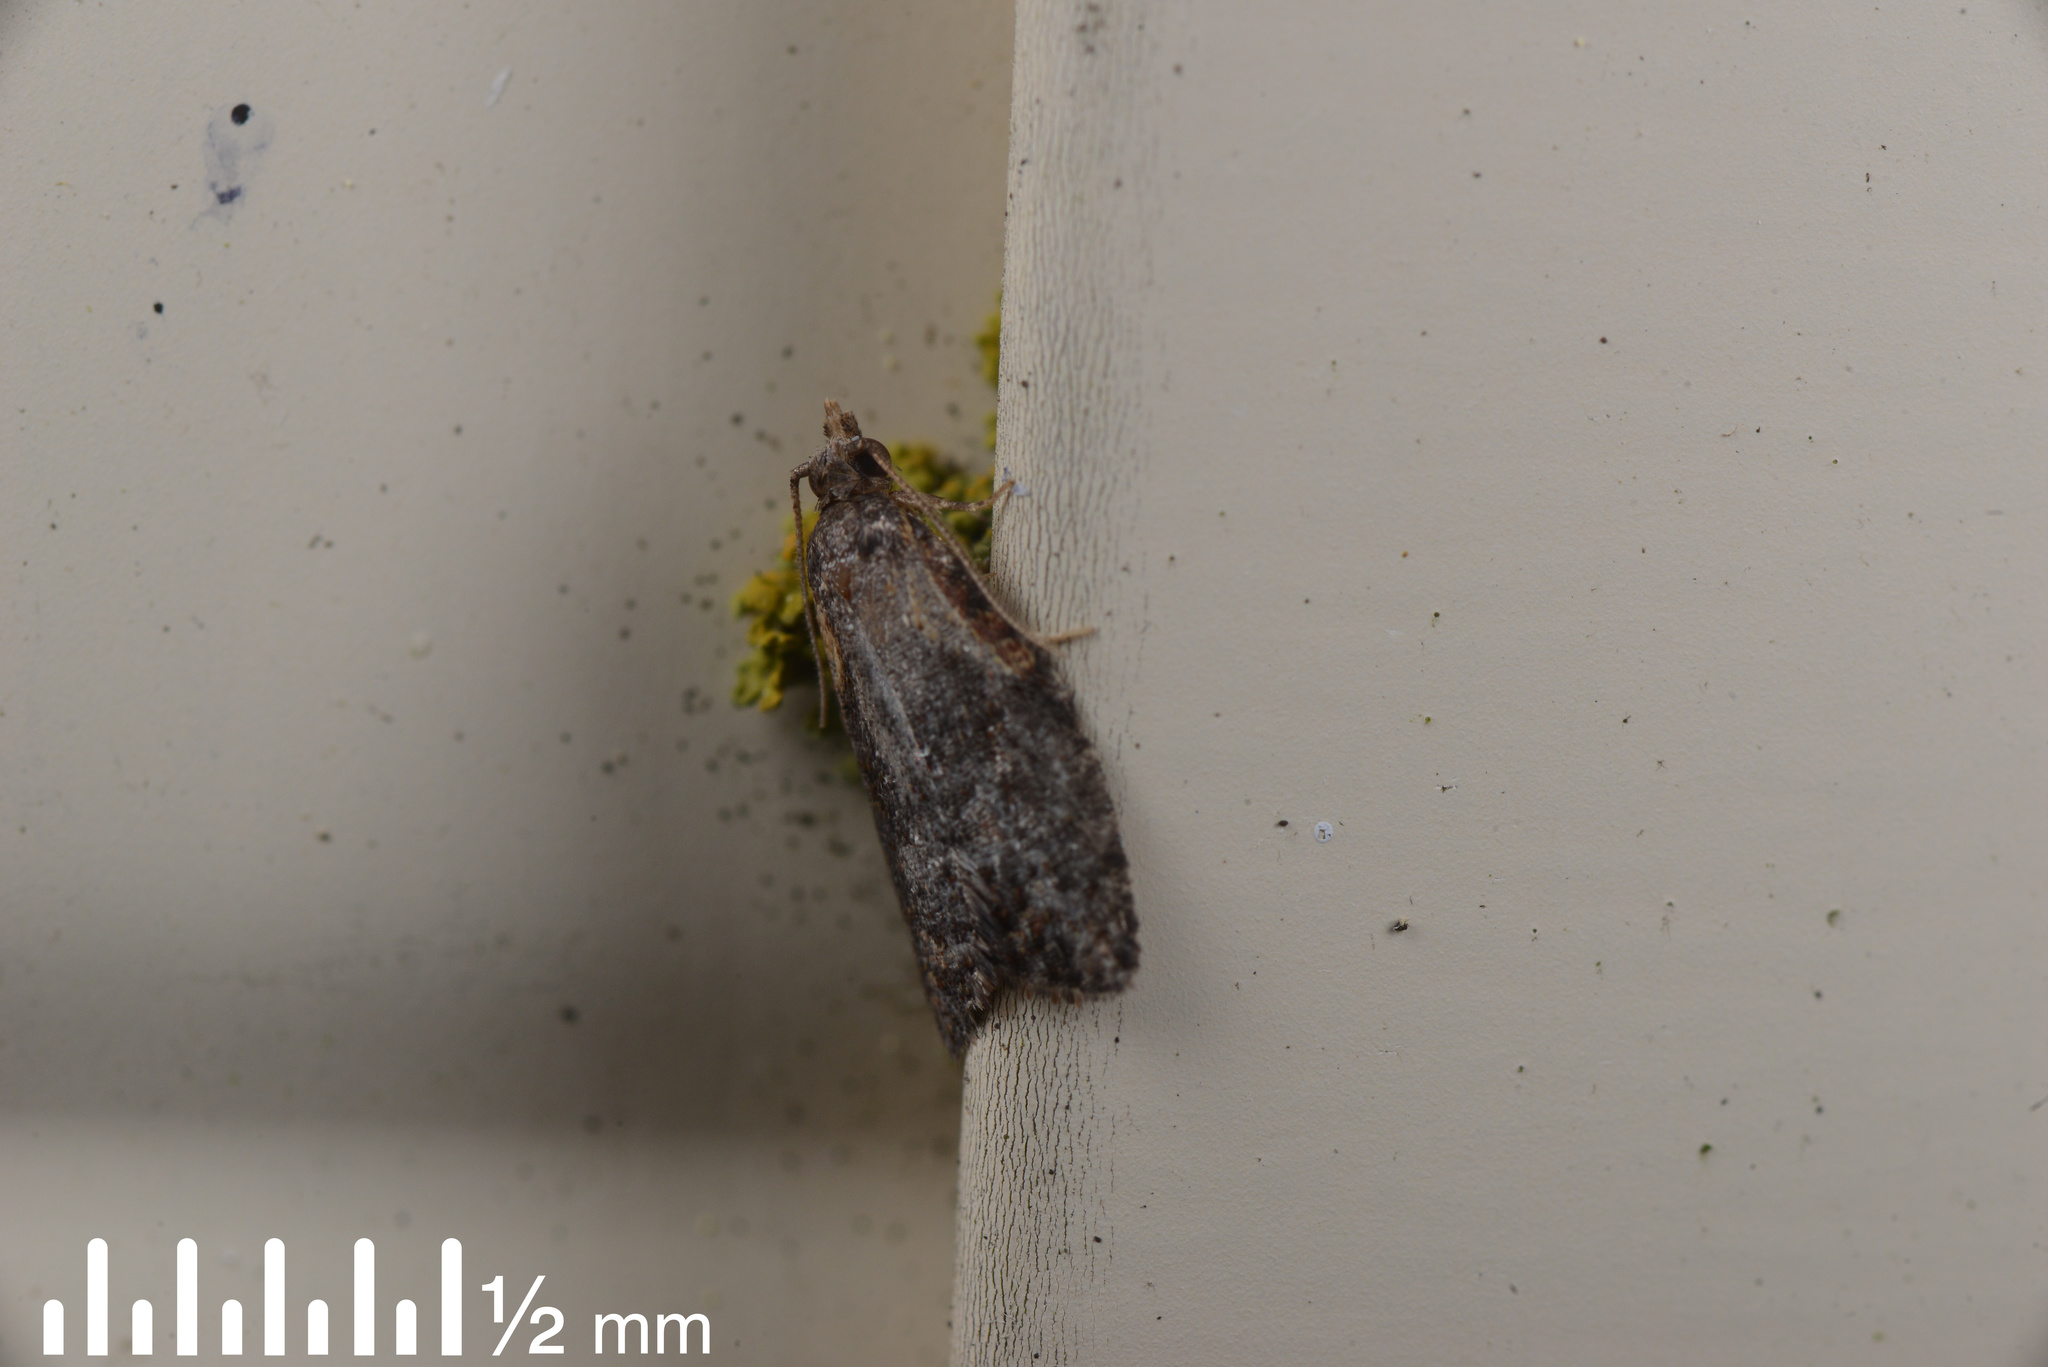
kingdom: Animalia
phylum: Arthropoda
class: Insecta
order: Lepidoptera
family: Tortricidae
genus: Capua
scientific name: Capua intractana
